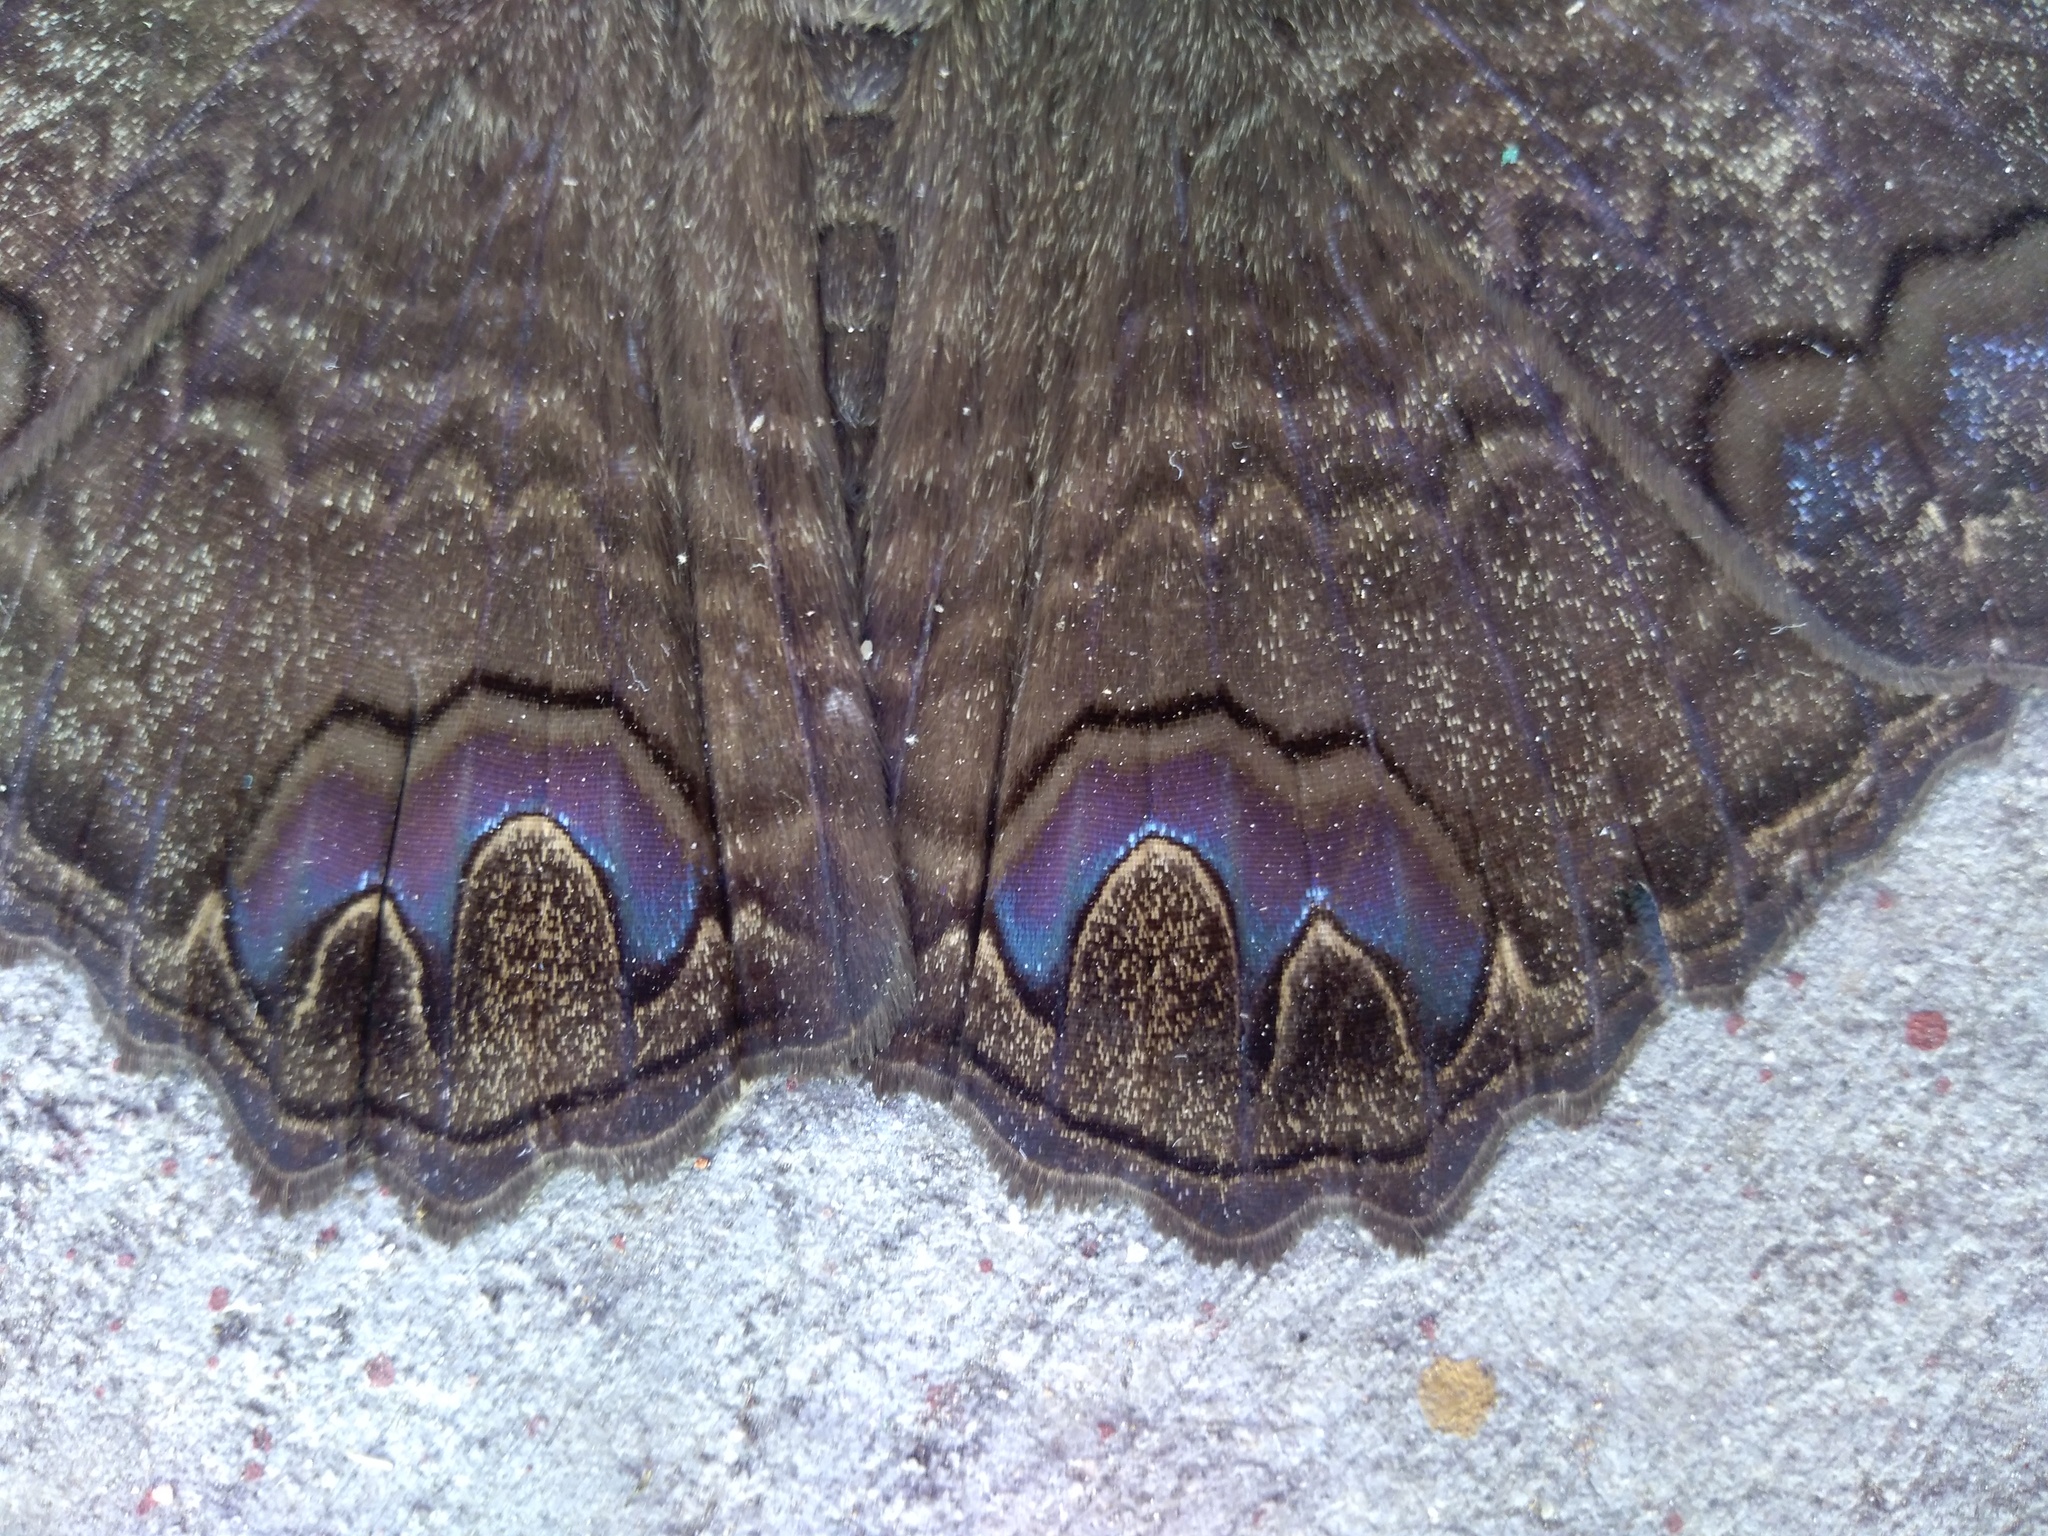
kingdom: Animalia
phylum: Arthropoda
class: Insecta
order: Lepidoptera
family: Erebidae
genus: Ascalapha
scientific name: Ascalapha odorata
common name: Black witch
